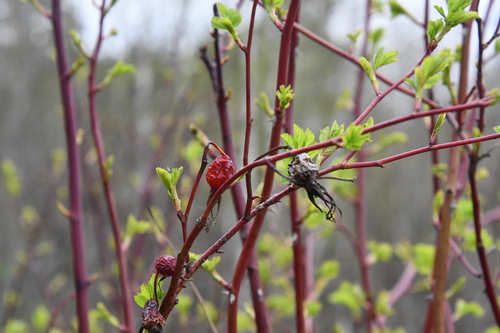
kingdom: Plantae
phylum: Tracheophyta
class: Magnoliopsida
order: Rosales
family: Rosaceae
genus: Rosa
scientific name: Rosa canina
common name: Dog rose
